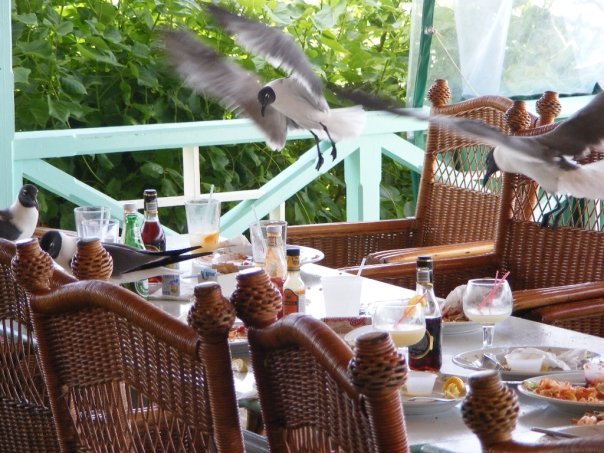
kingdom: Animalia
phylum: Chordata
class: Aves
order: Charadriiformes
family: Laridae
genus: Leucophaeus
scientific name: Leucophaeus atricilla
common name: Laughing gull
